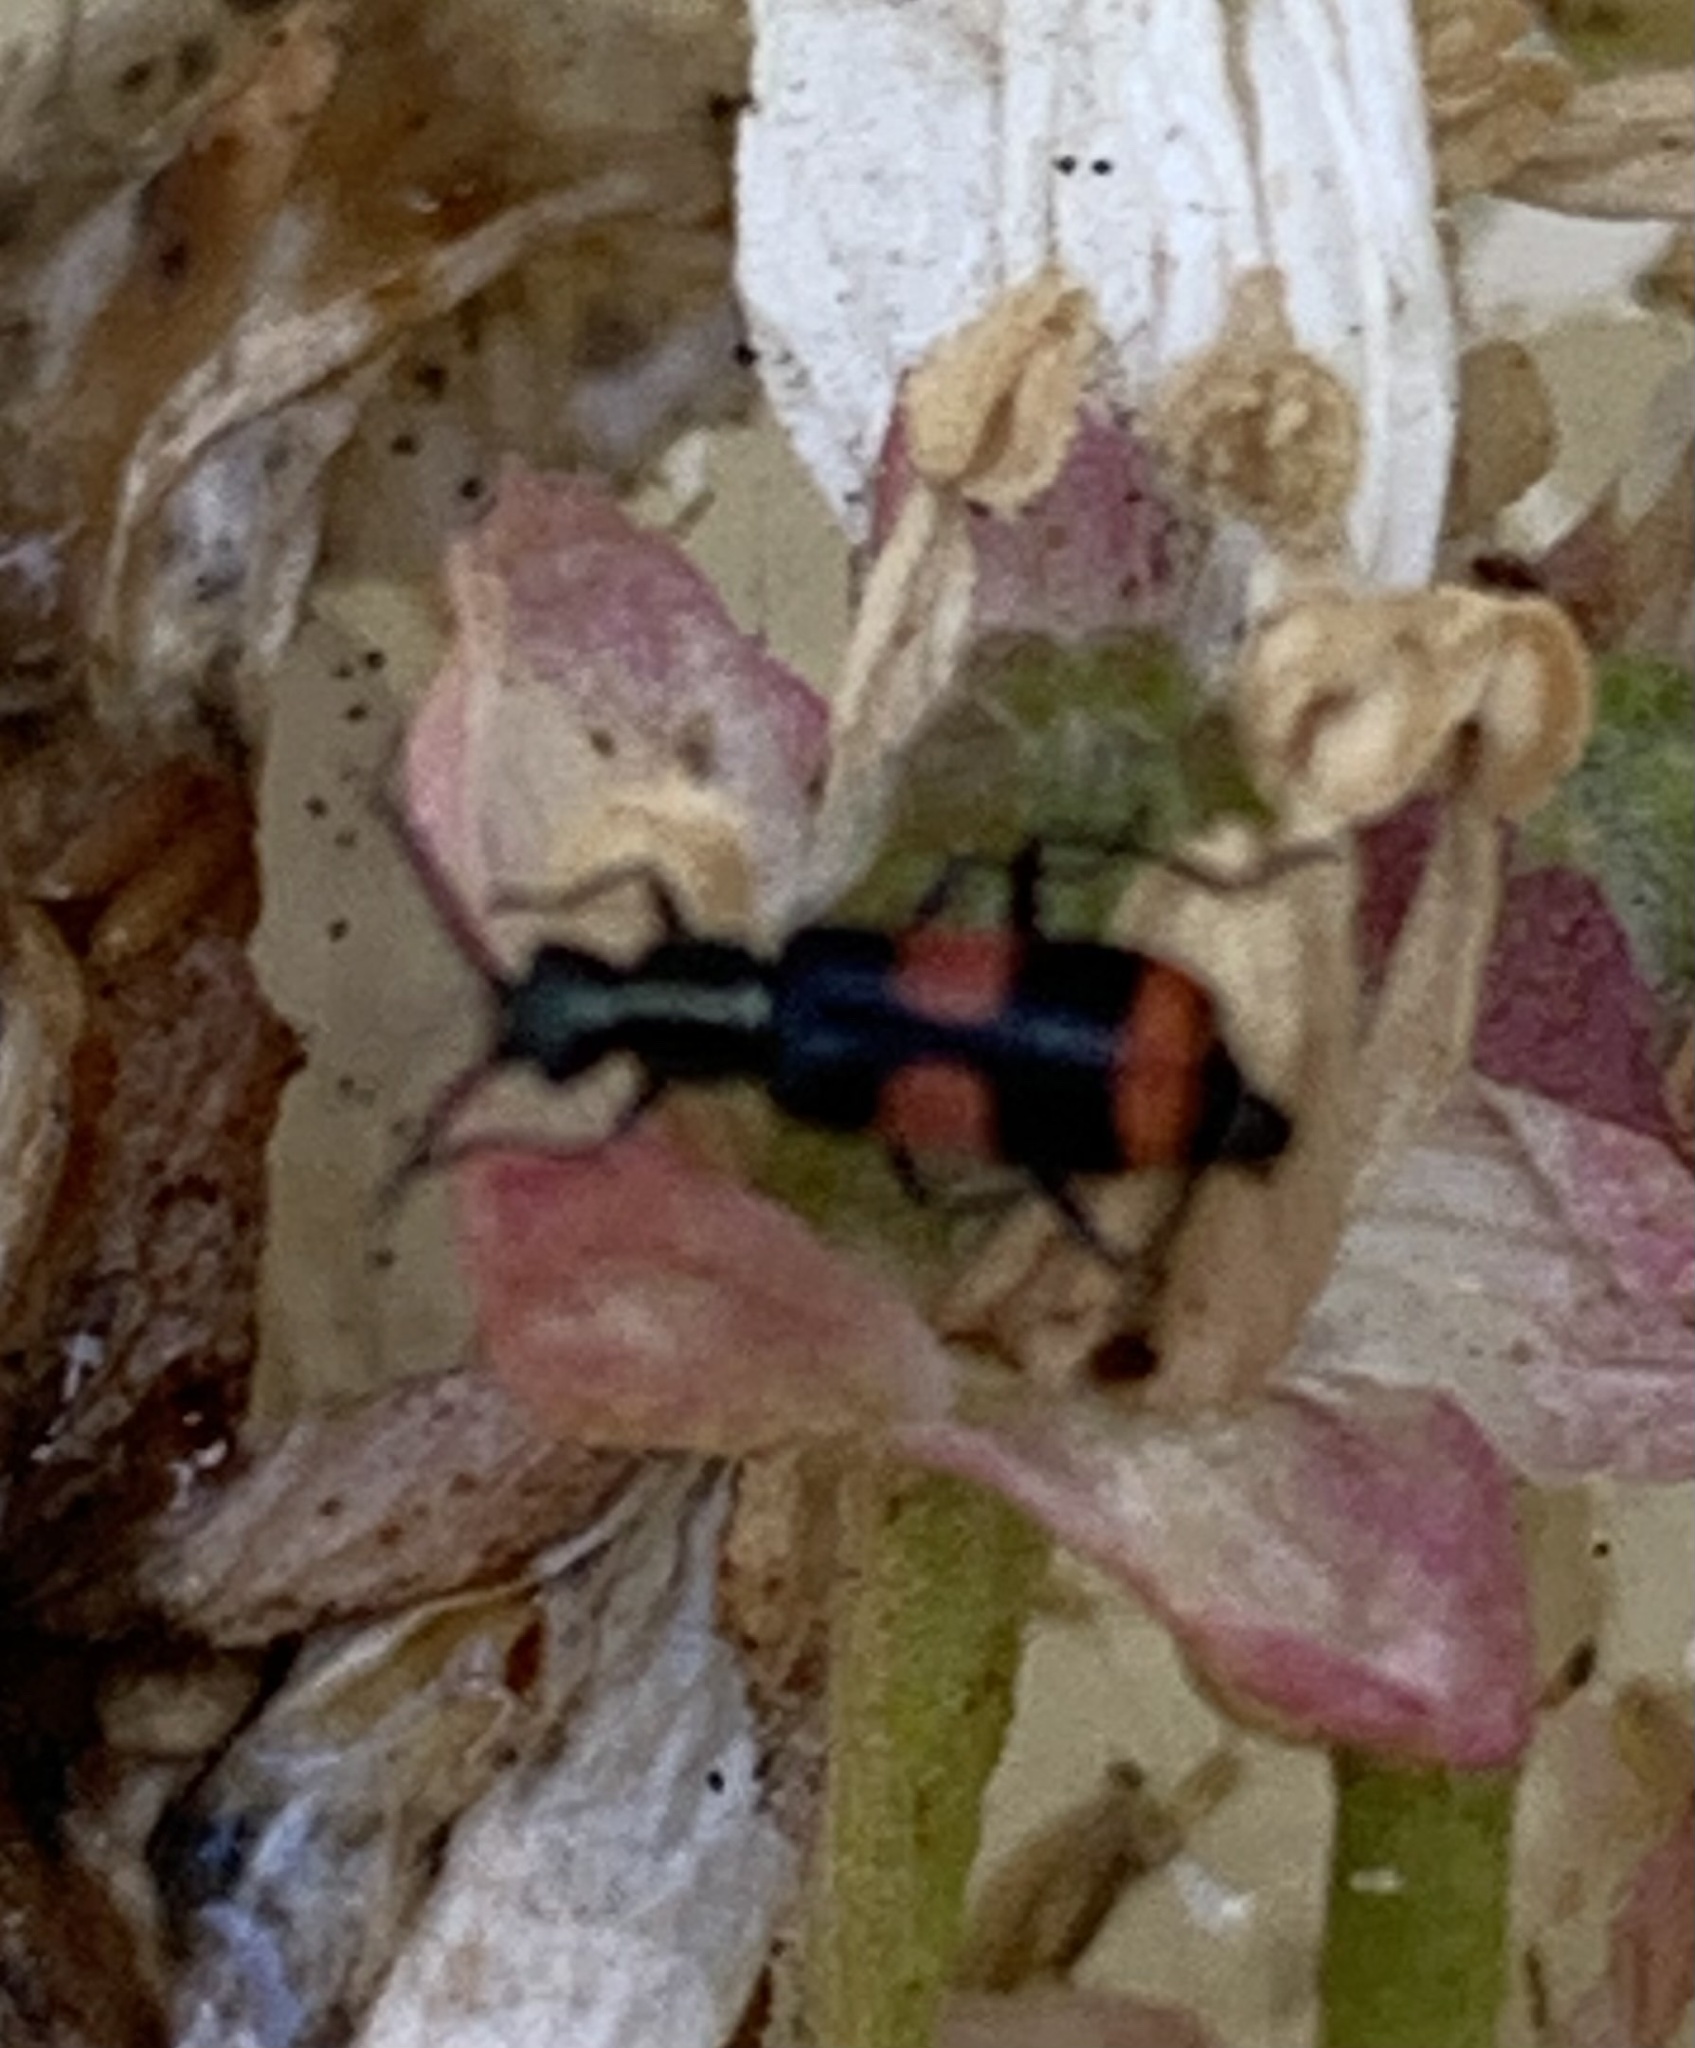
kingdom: Animalia
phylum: Arthropoda
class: Insecta
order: Coleoptera
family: Melyridae
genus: Anthocomus
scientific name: Anthocomus fasciatus
